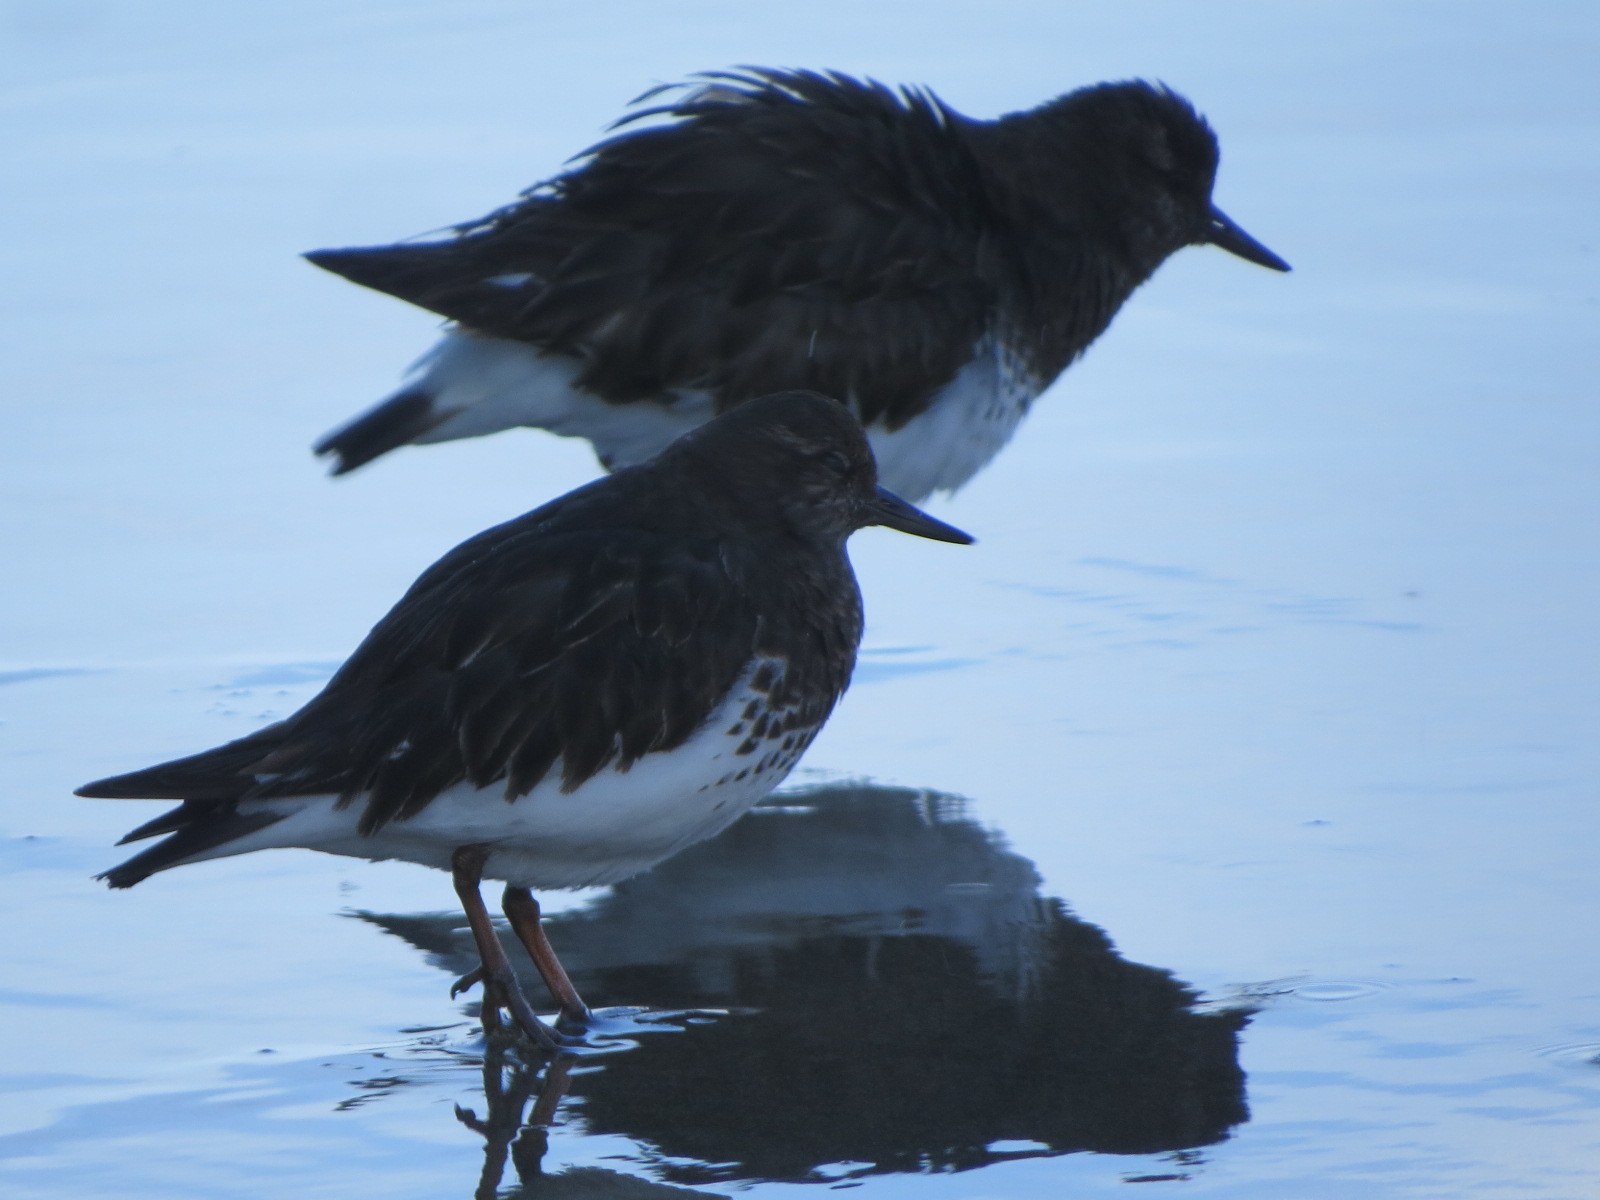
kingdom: Animalia
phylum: Chordata
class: Aves
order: Charadriiformes
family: Scolopacidae
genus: Arenaria
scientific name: Arenaria melanocephala
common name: Black turnstone
